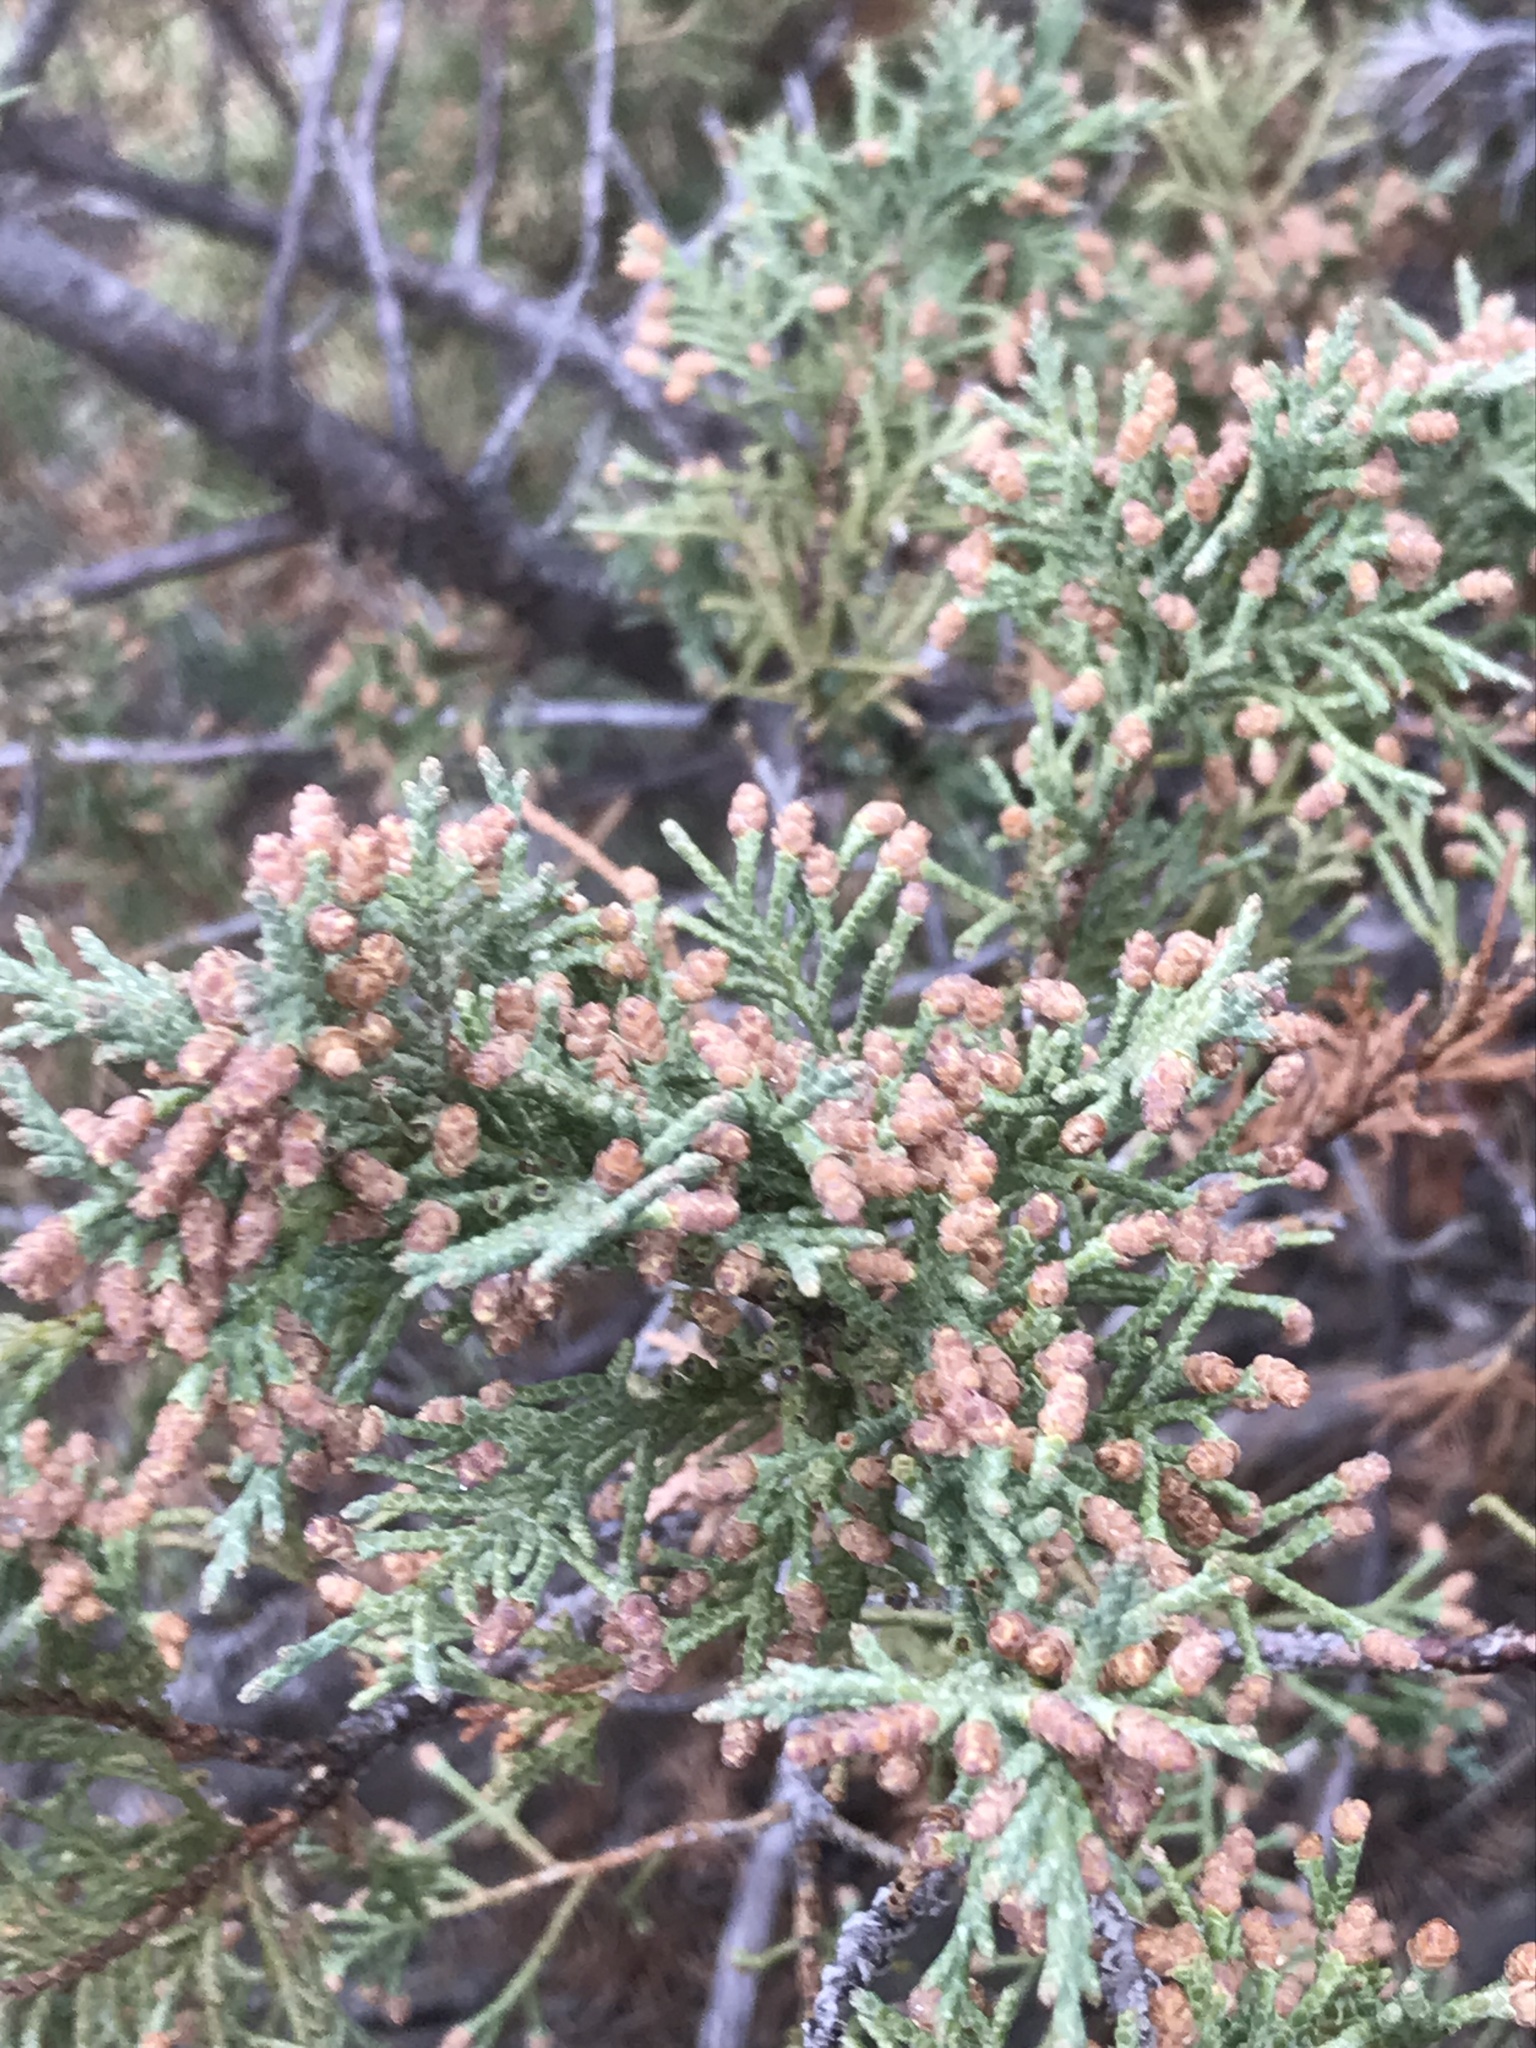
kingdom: Plantae
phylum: Tracheophyta
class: Pinopsida
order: Pinales
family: Cupressaceae
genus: Juniperus
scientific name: Juniperus scopulorum
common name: Rocky mountain juniper
